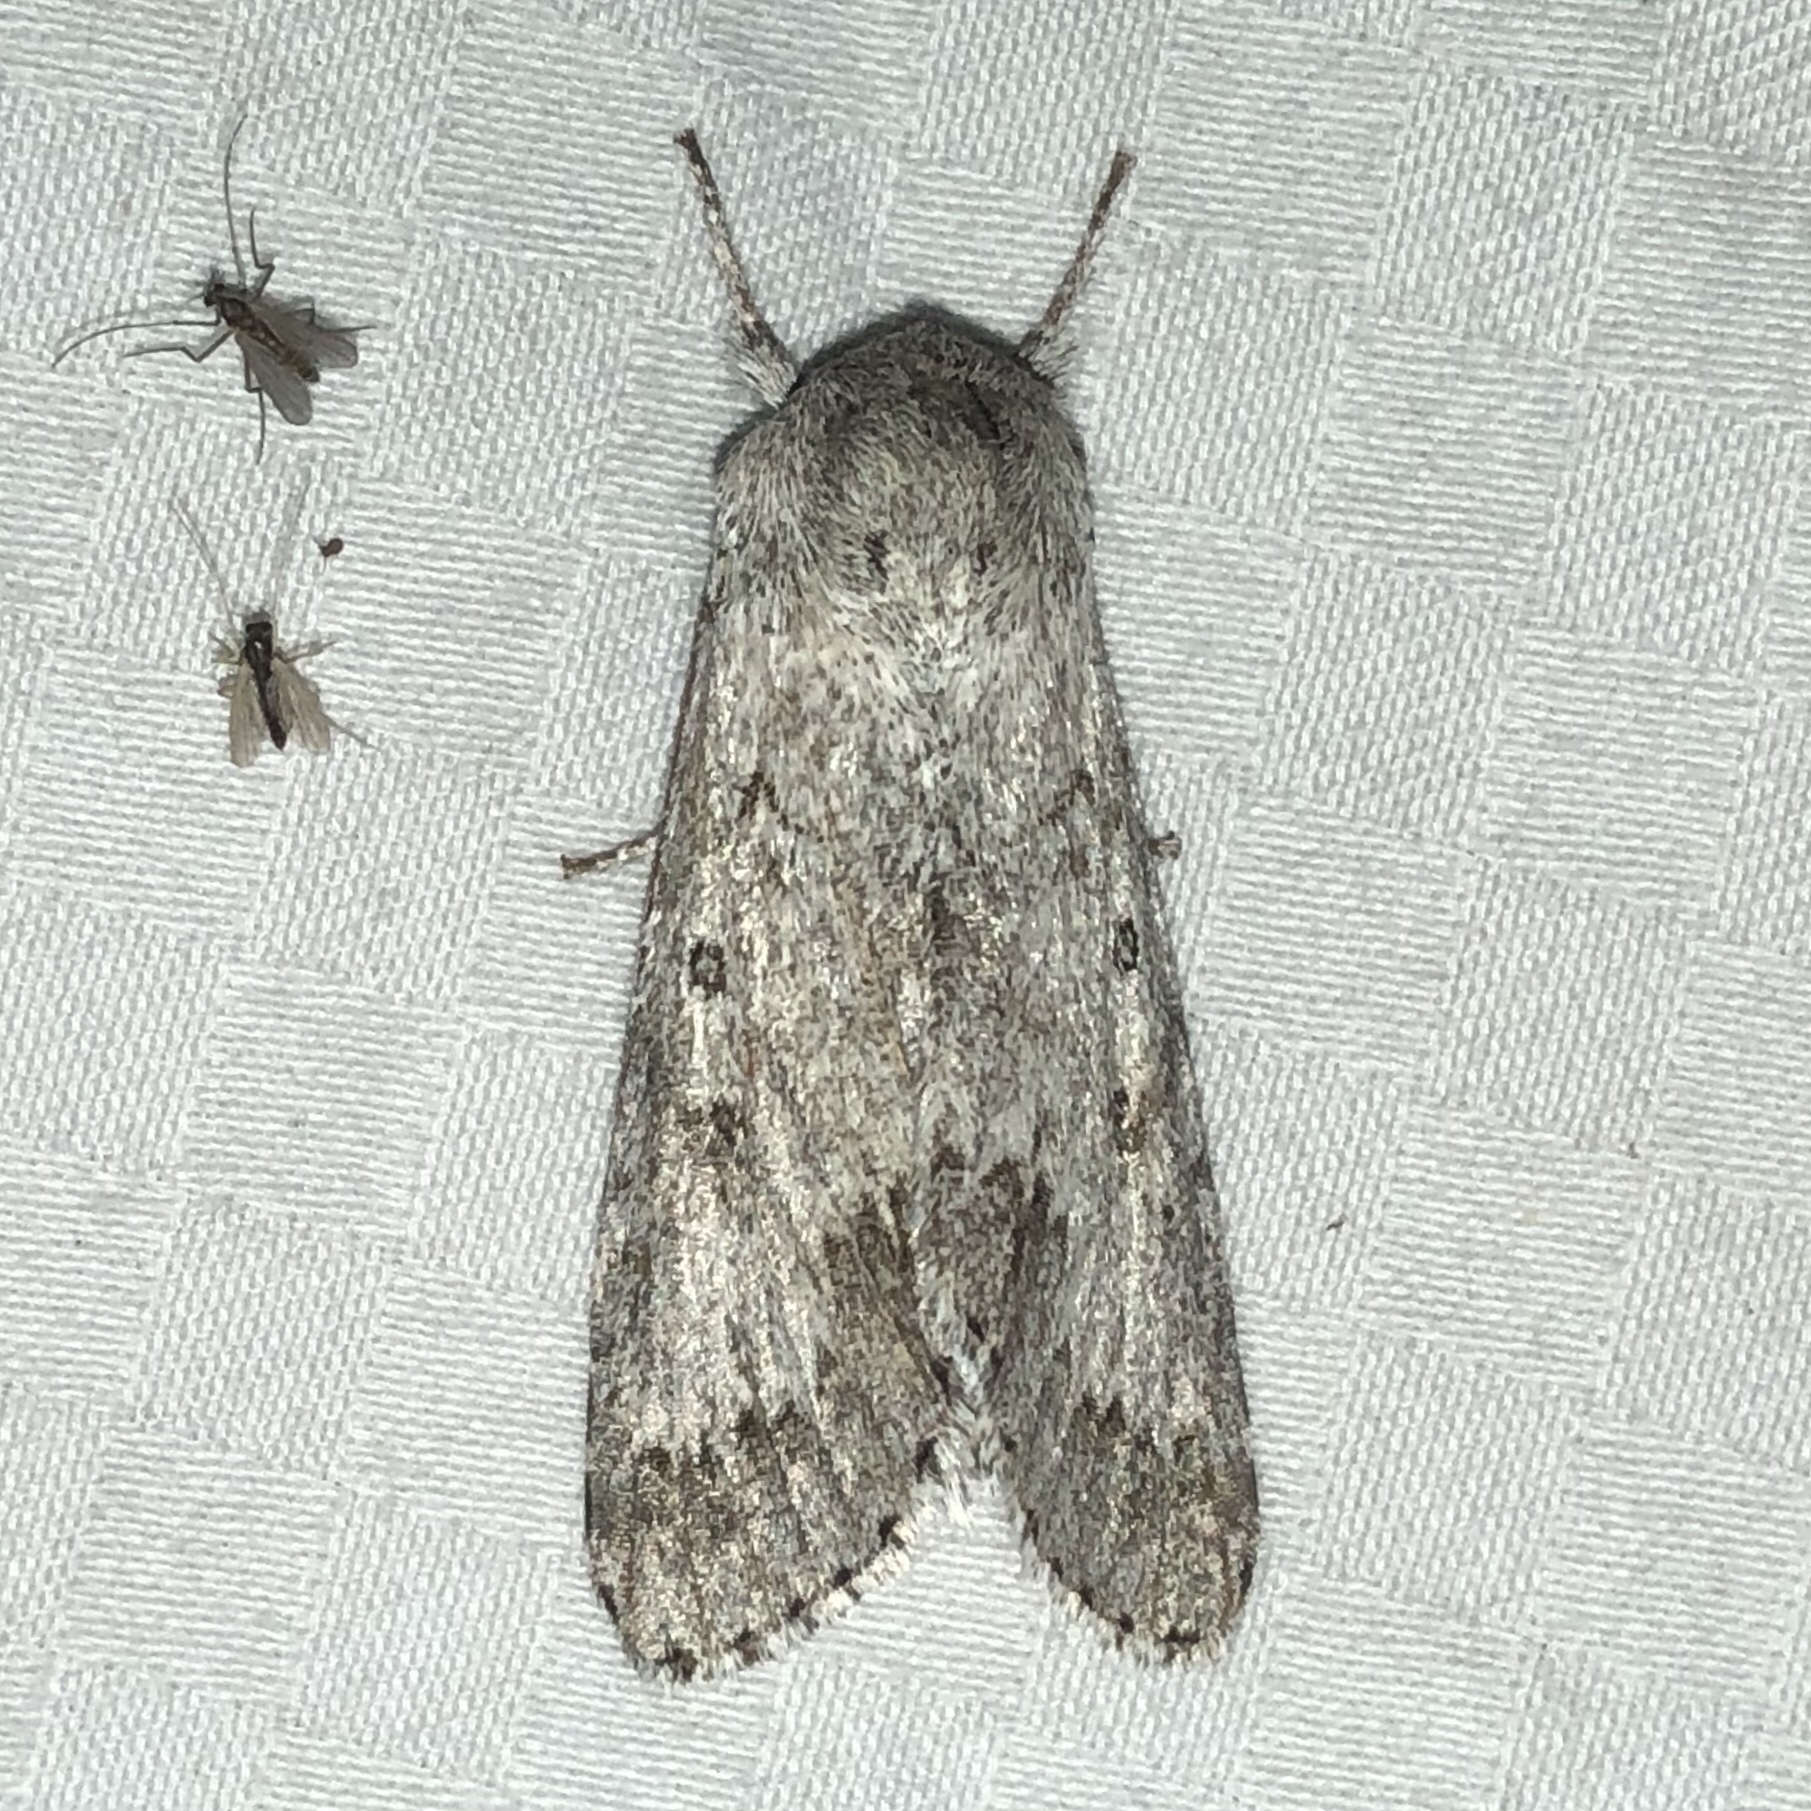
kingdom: Animalia
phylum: Arthropoda
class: Insecta
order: Lepidoptera
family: Noctuidae
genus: Acronicta
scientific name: Acronicta insita
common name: Large gray dagger
